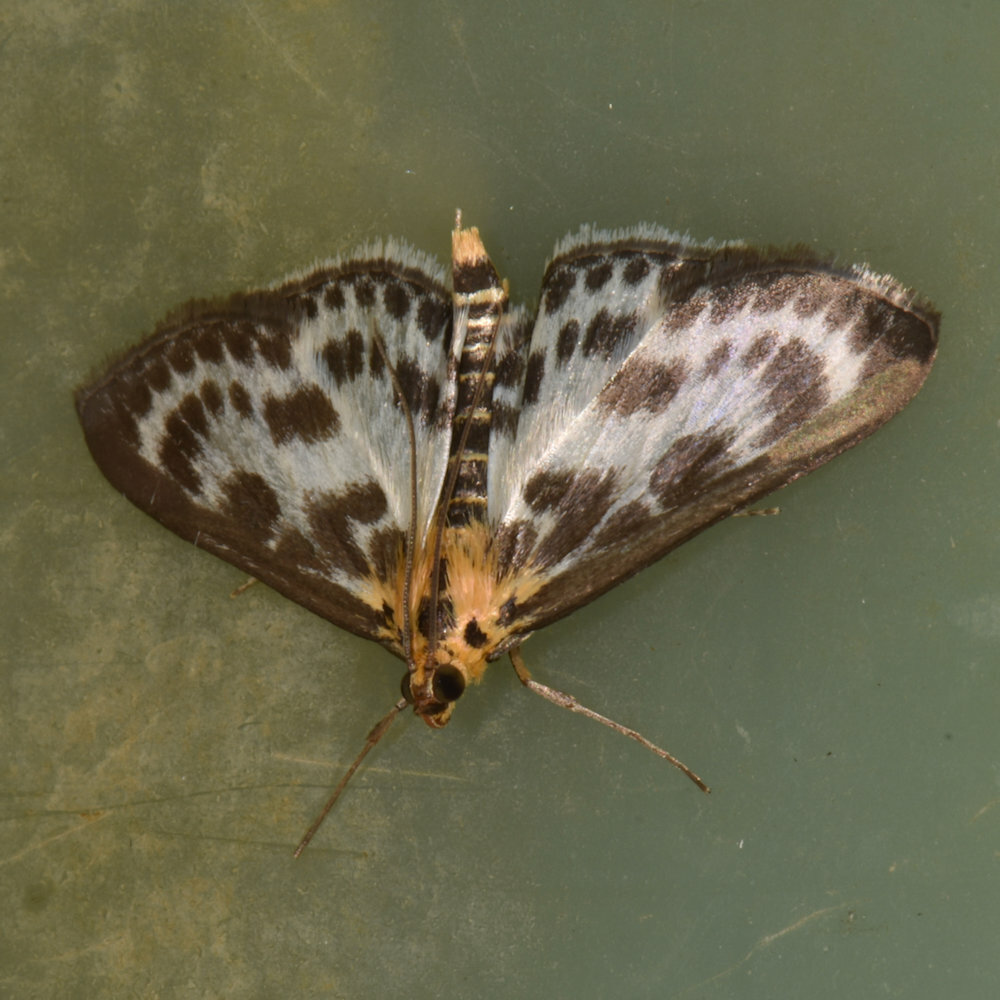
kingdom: Animalia
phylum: Arthropoda
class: Insecta
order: Lepidoptera
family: Crambidae
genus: Anania
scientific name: Anania hortulata
